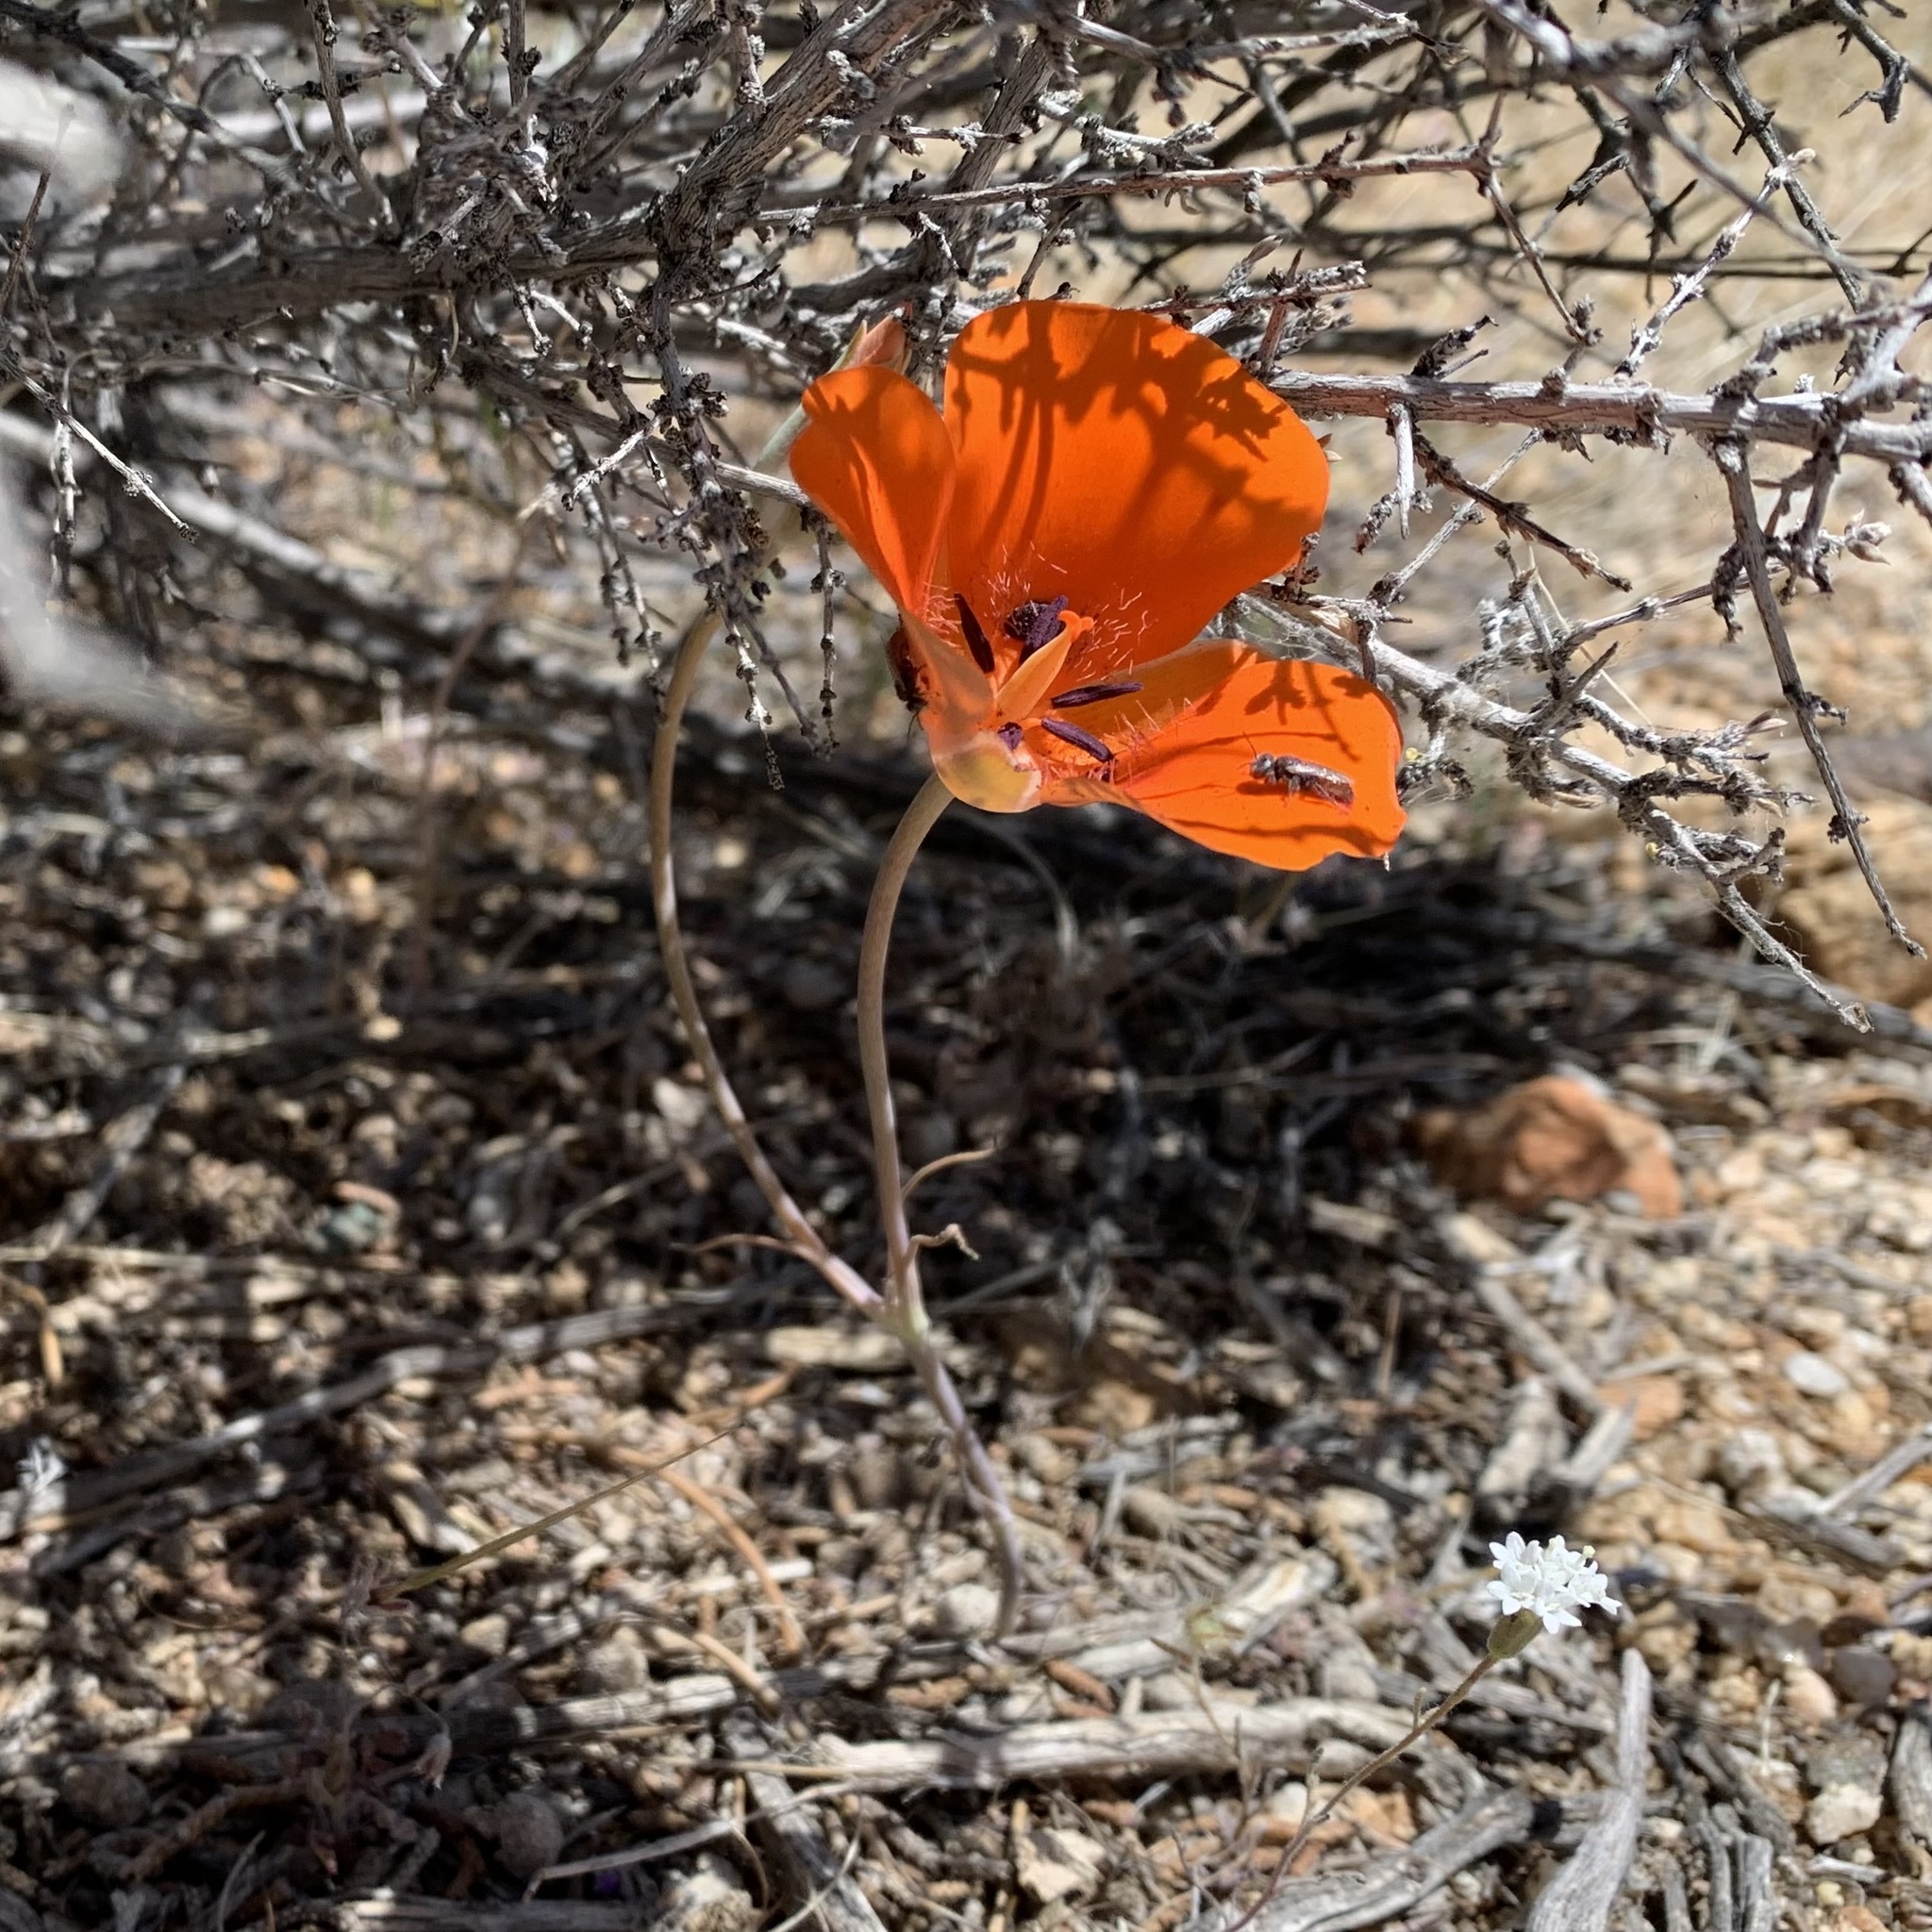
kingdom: Plantae
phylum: Tracheophyta
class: Liliopsida
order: Liliales
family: Liliaceae
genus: Calochortus
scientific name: Calochortus kennedyi
